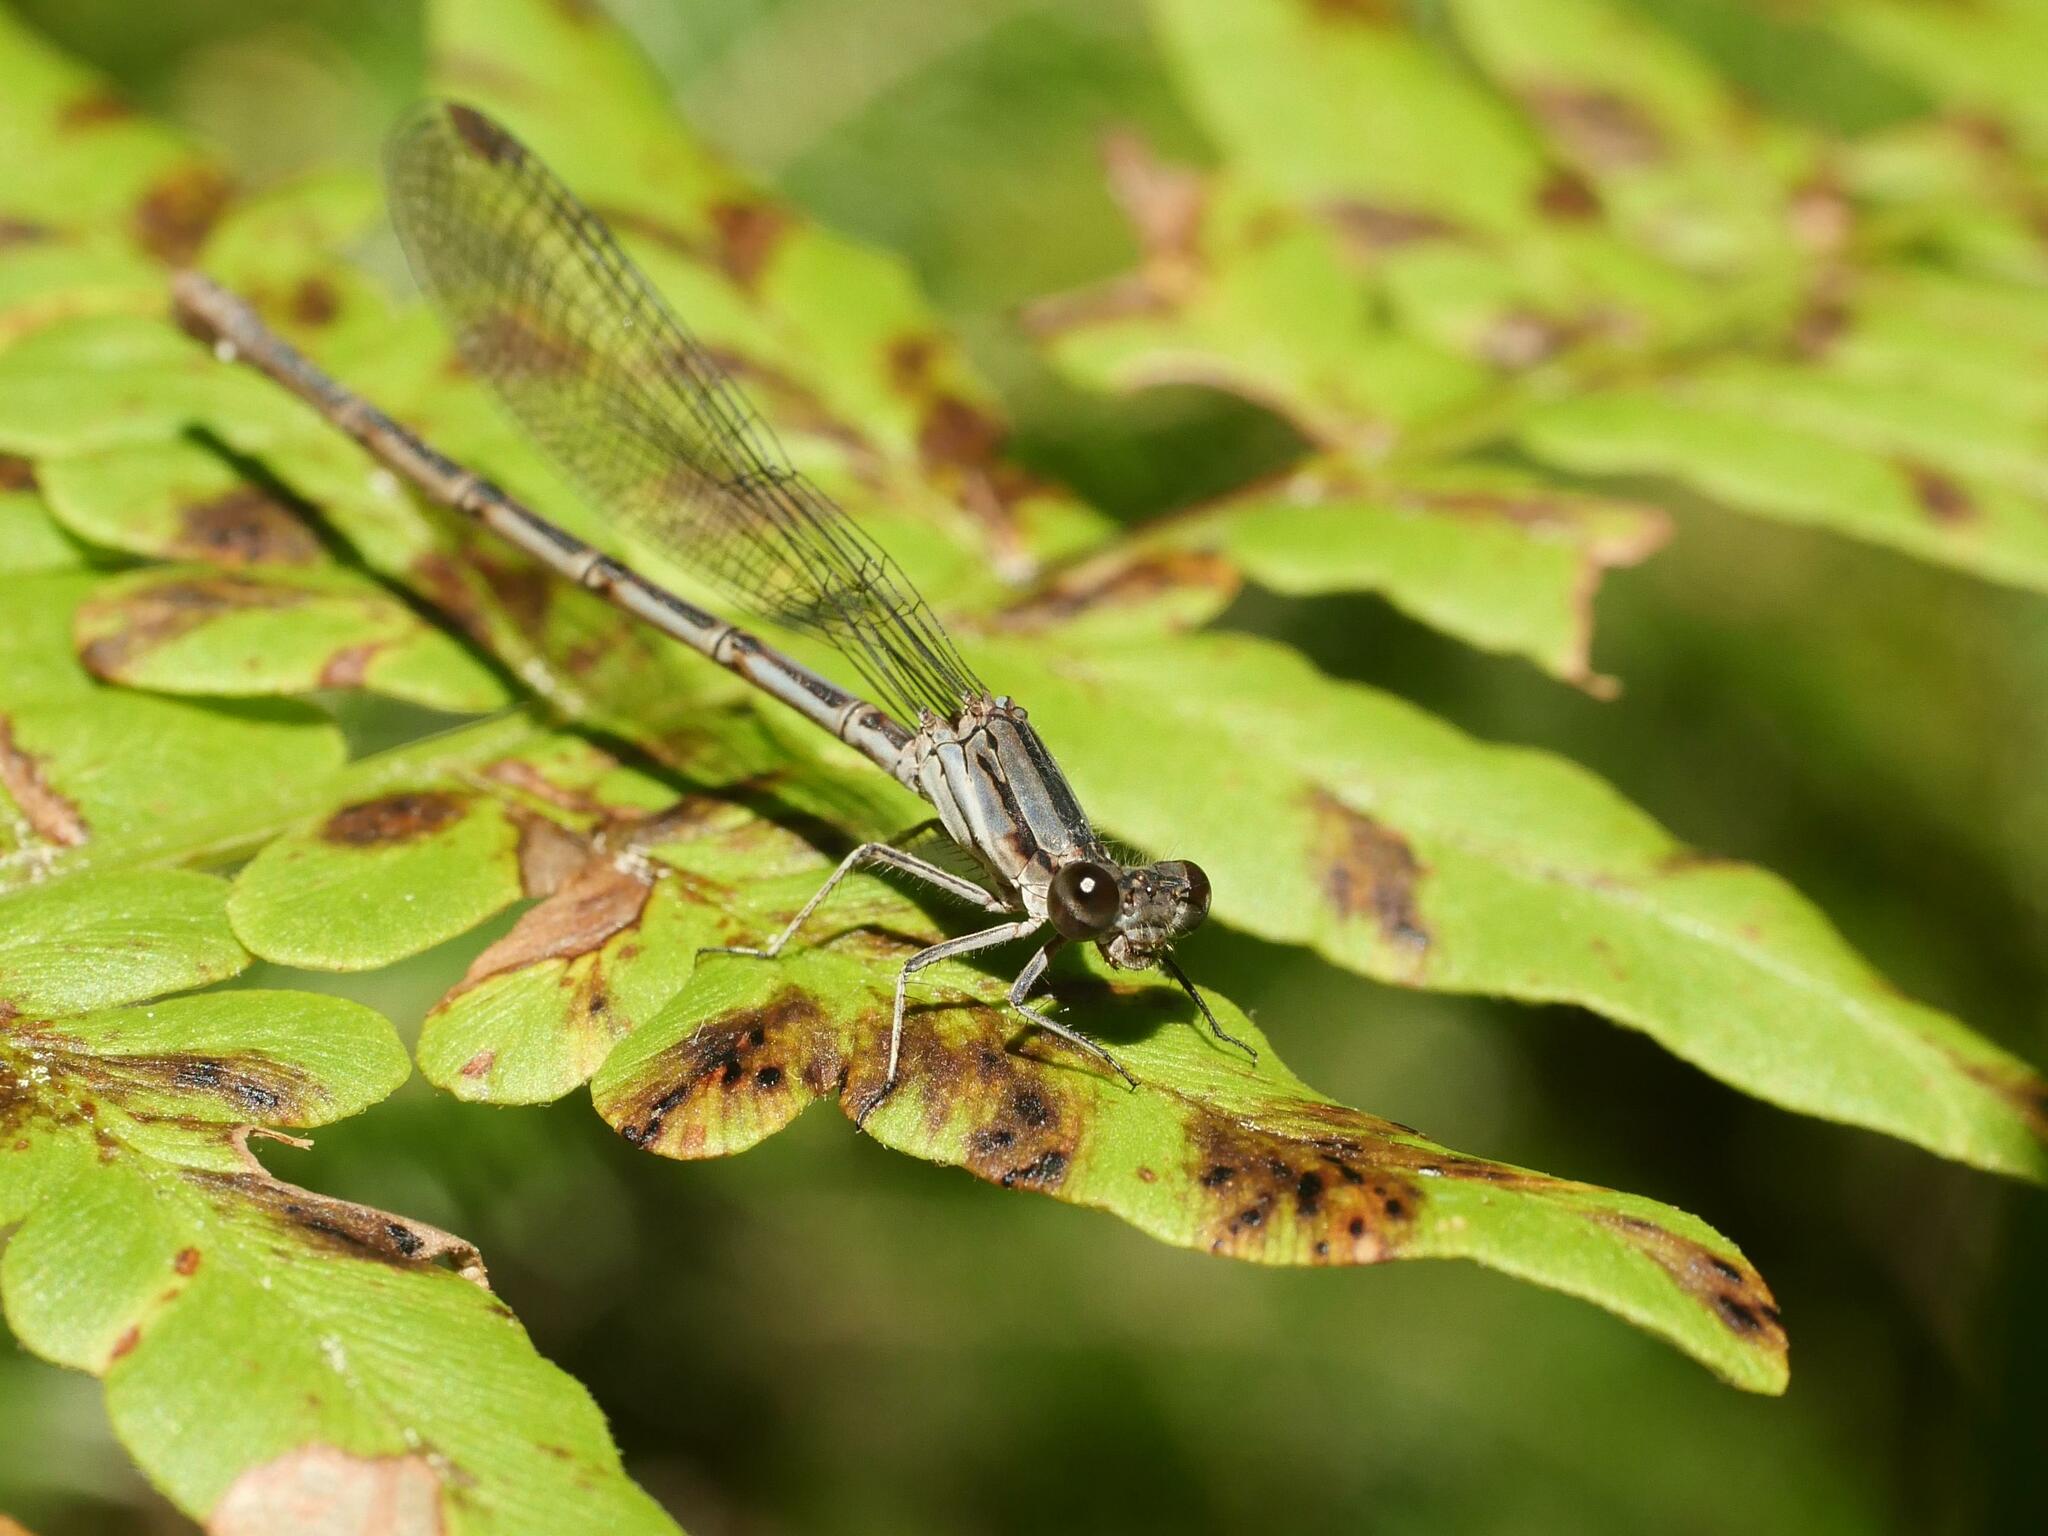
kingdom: Animalia
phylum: Arthropoda
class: Insecta
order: Odonata
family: Coenagrionidae
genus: Argia
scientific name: Argia fumipennis
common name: Variable dancer
